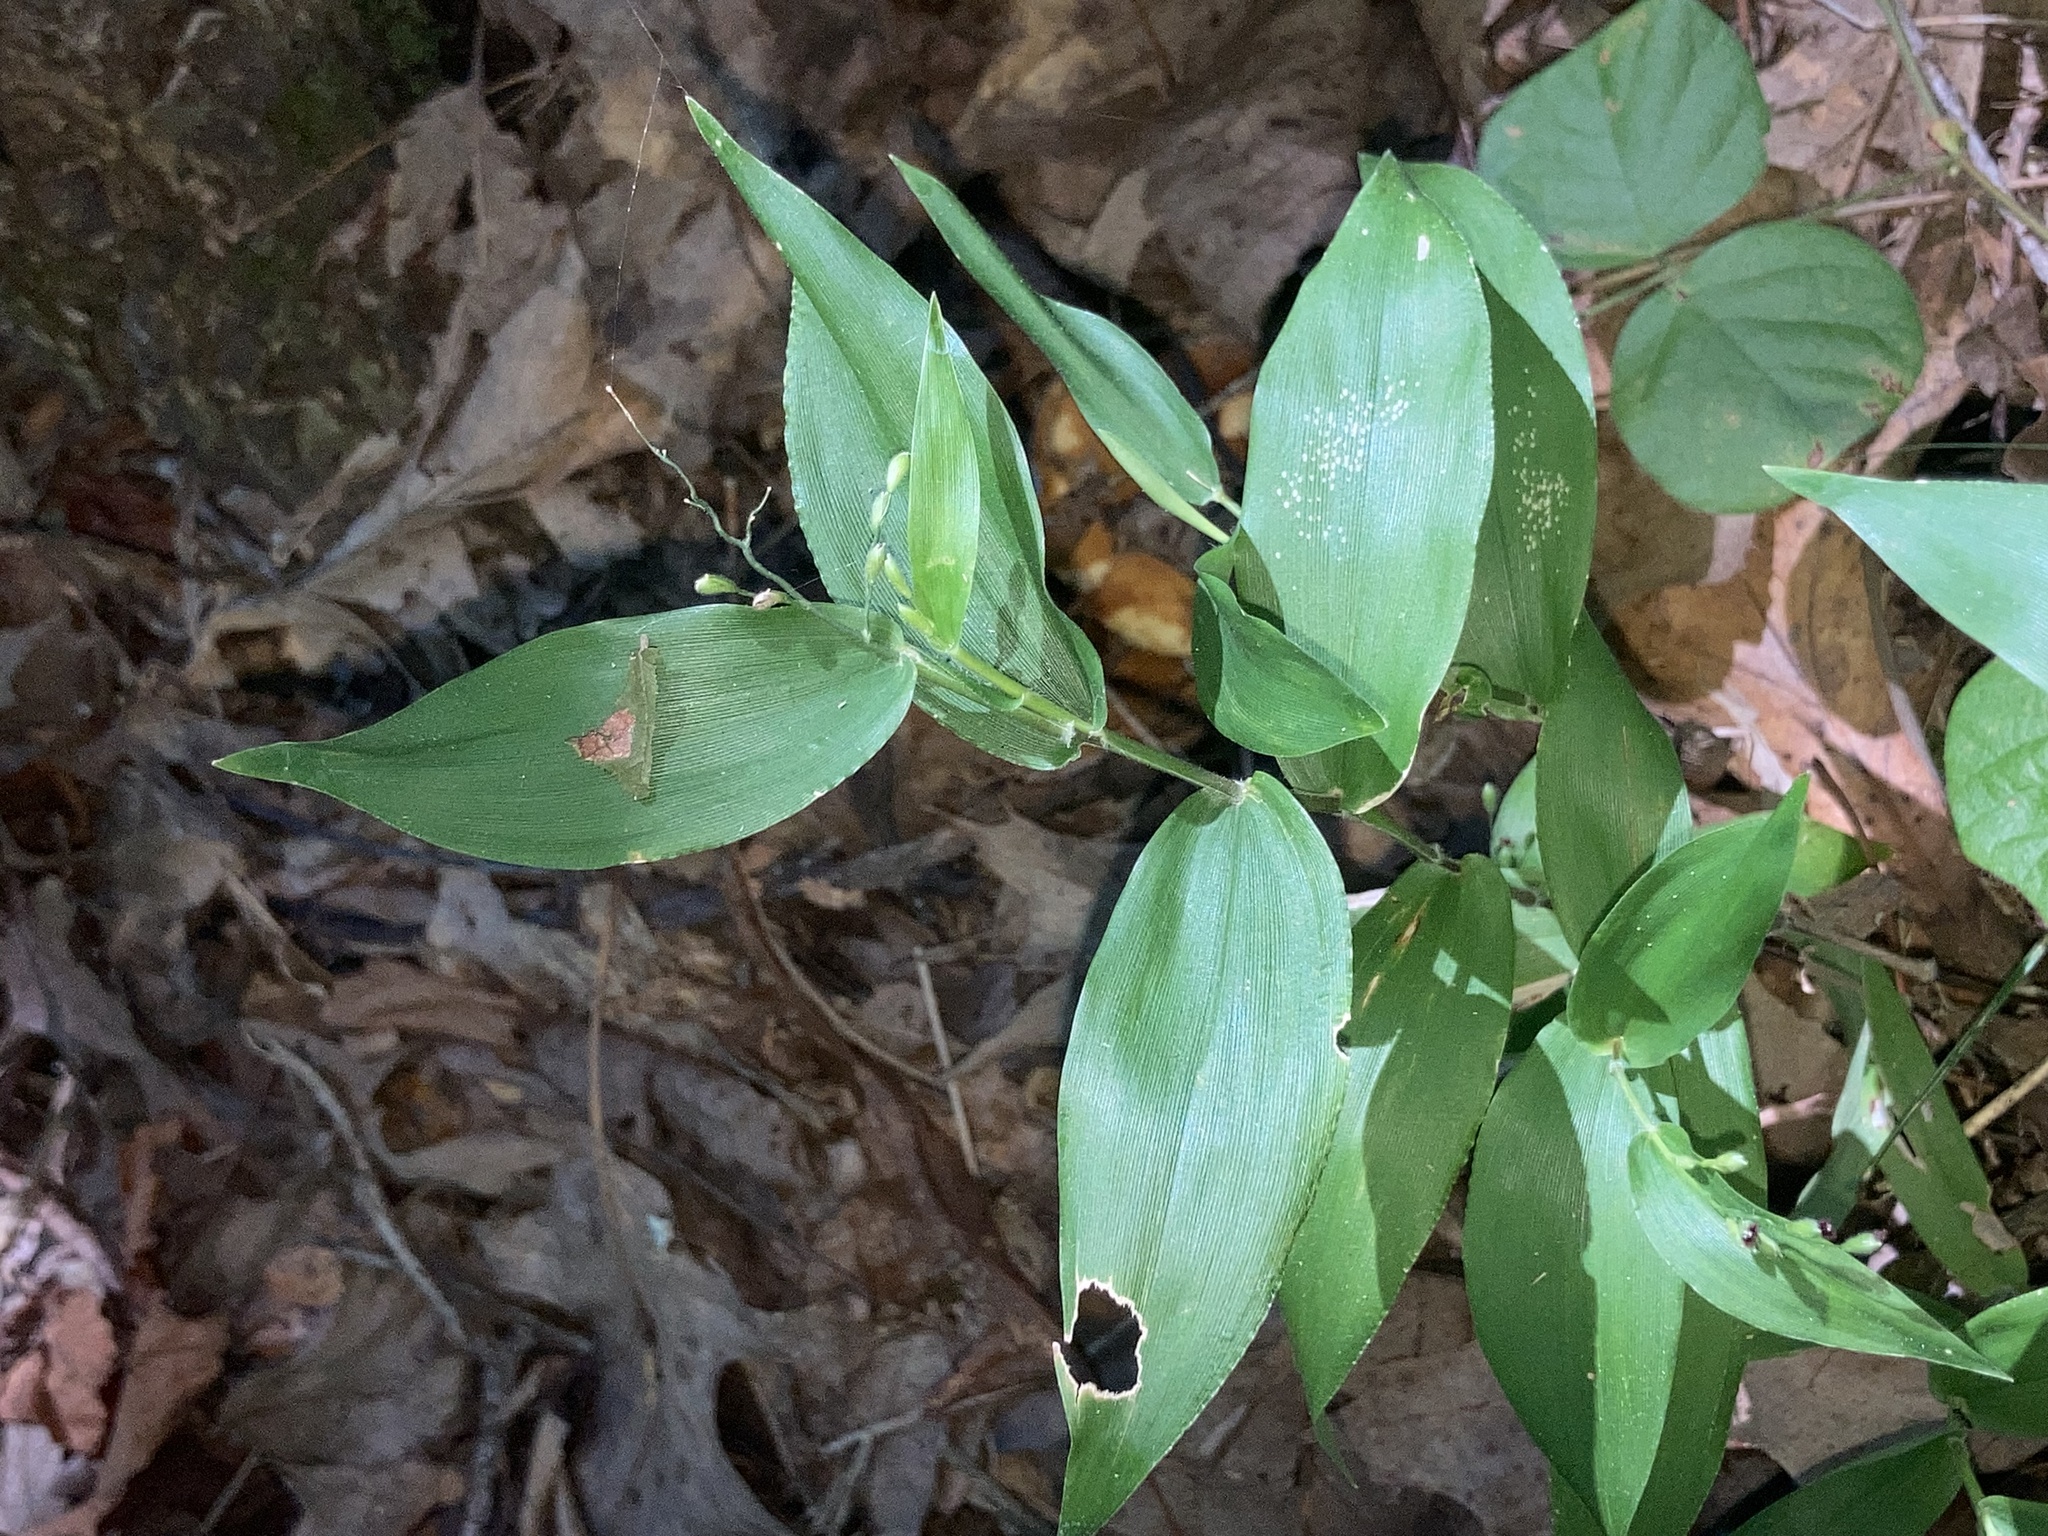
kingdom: Plantae
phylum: Tracheophyta
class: Liliopsida
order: Poales
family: Poaceae
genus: Dichanthelium
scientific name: Dichanthelium boscii
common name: Bosc's panic grass
